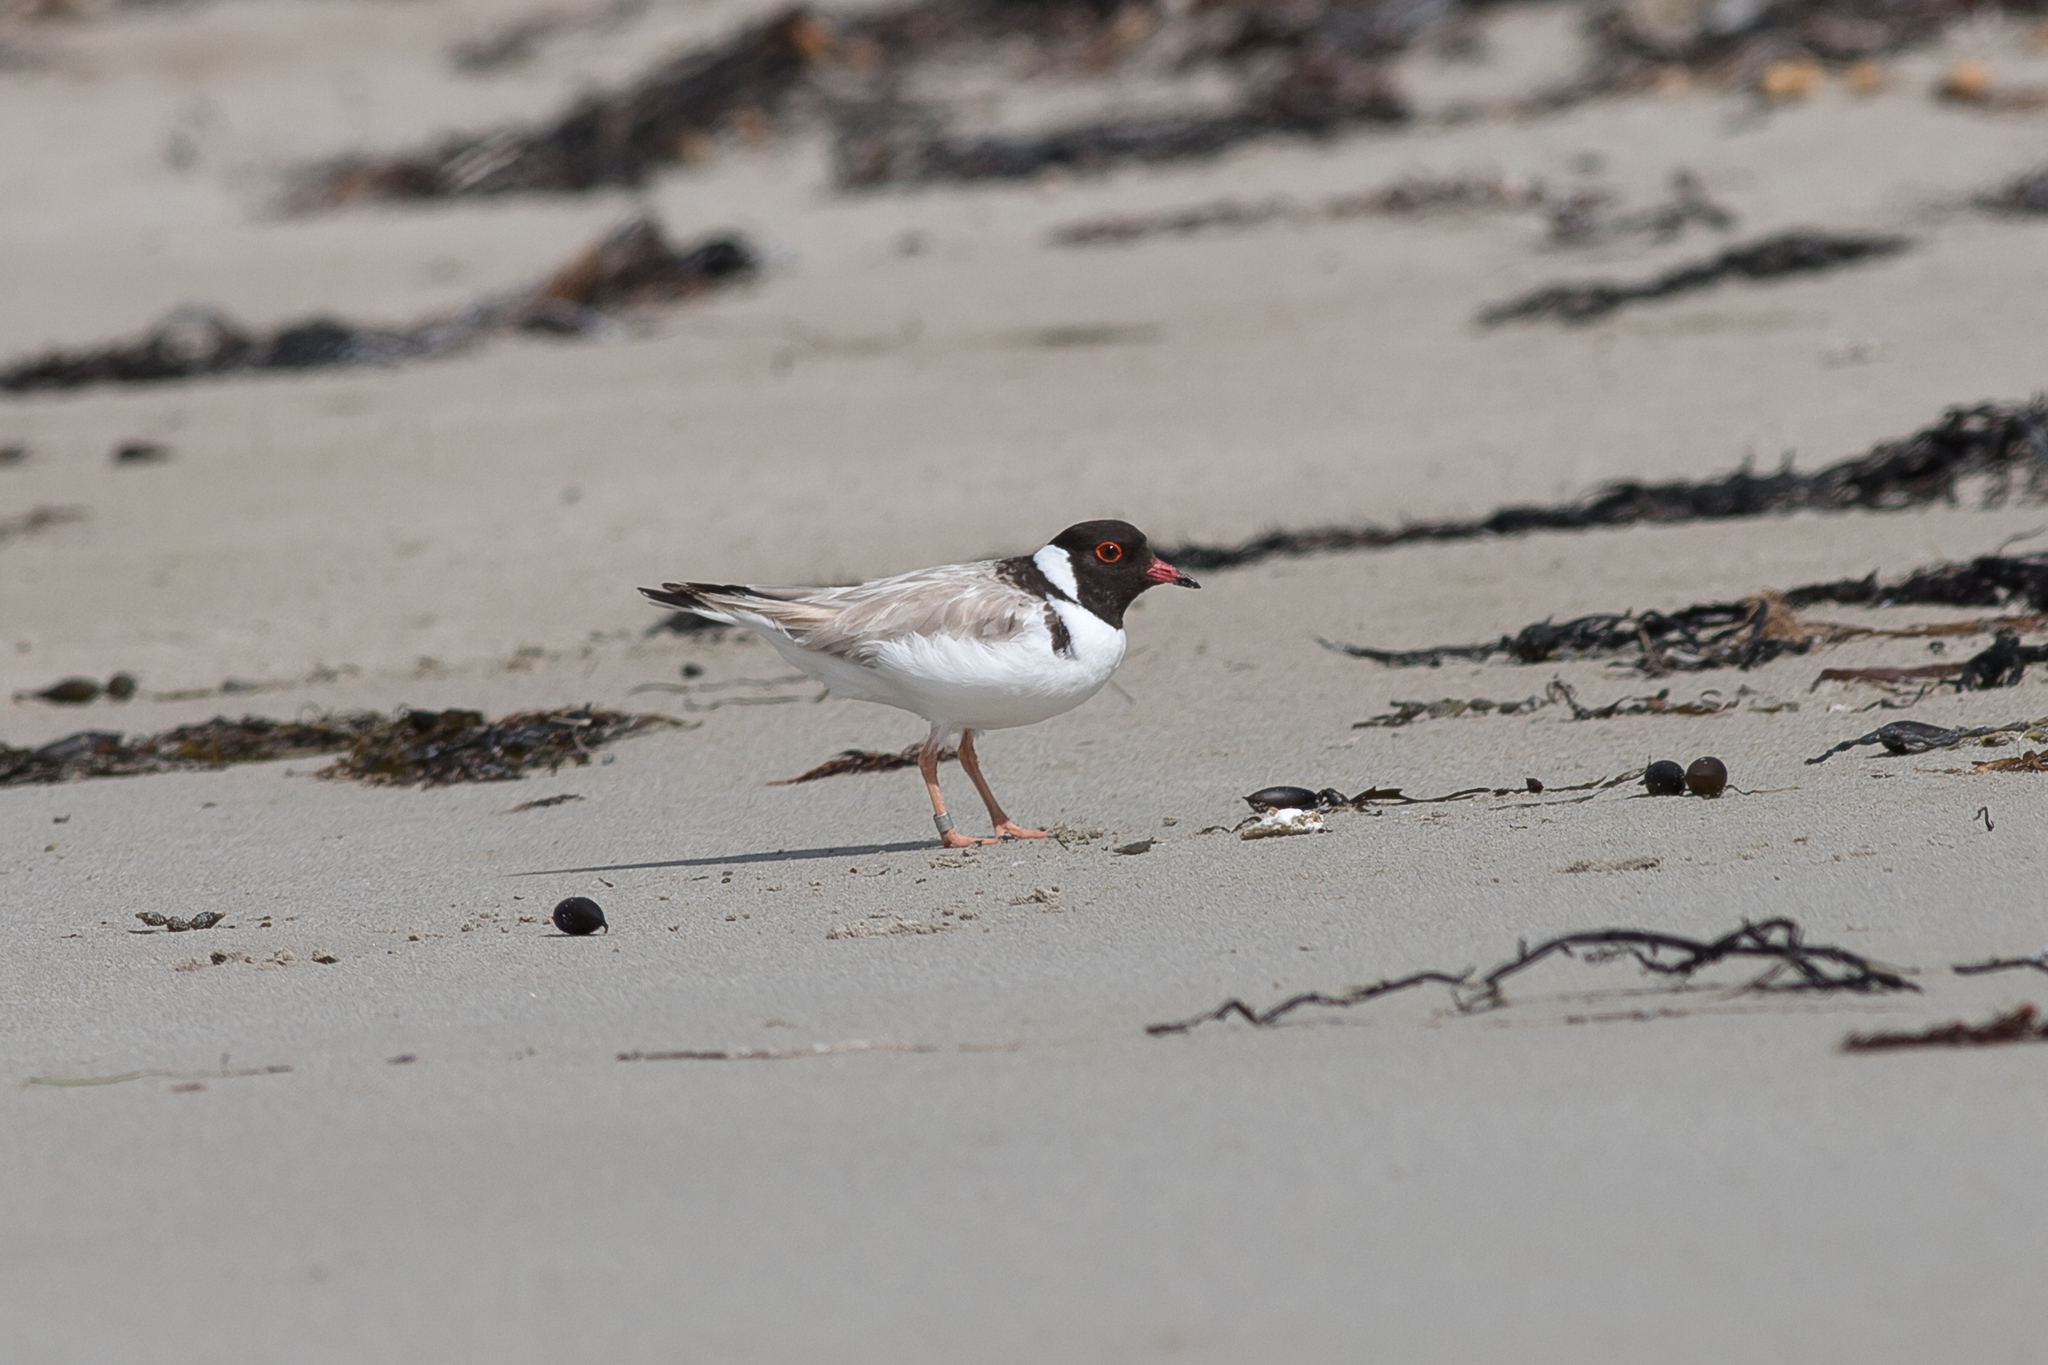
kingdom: Animalia
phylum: Chordata
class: Aves
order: Charadriiformes
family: Charadriidae
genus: Thinornis
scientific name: Thinornis cucullatus
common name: Hooded dotterel
